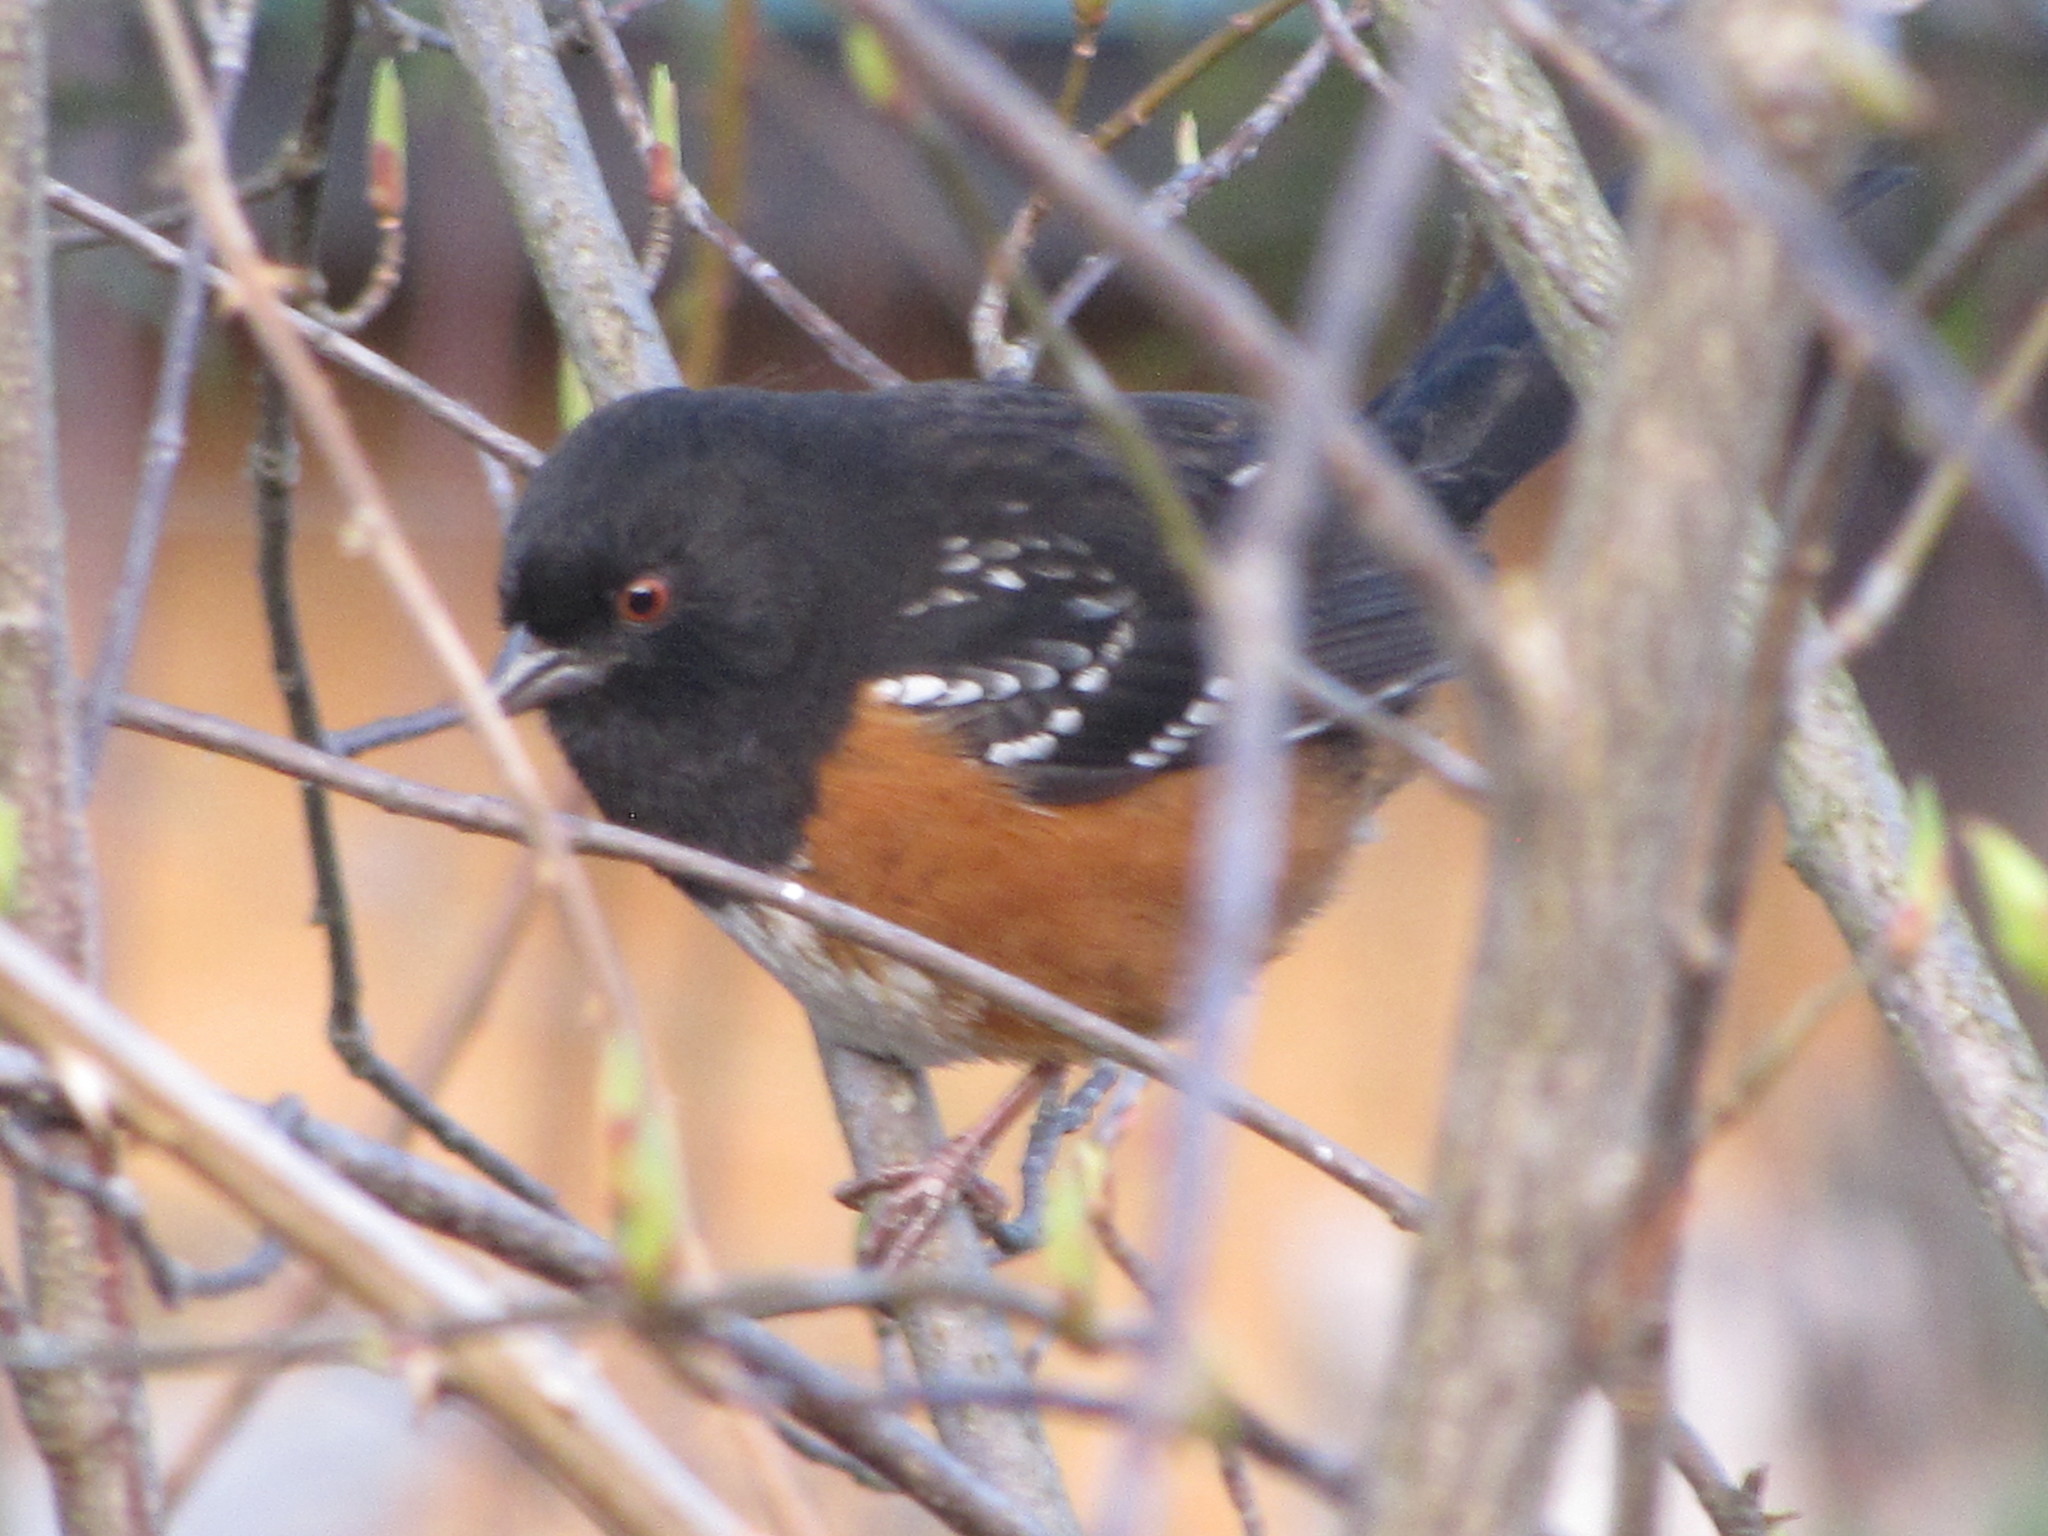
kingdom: Animalia
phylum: Chordata
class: Aves
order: Passeriformes
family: Passerellidae
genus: Pipilo
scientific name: Pipilo maculatus
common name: Spotted towhee
